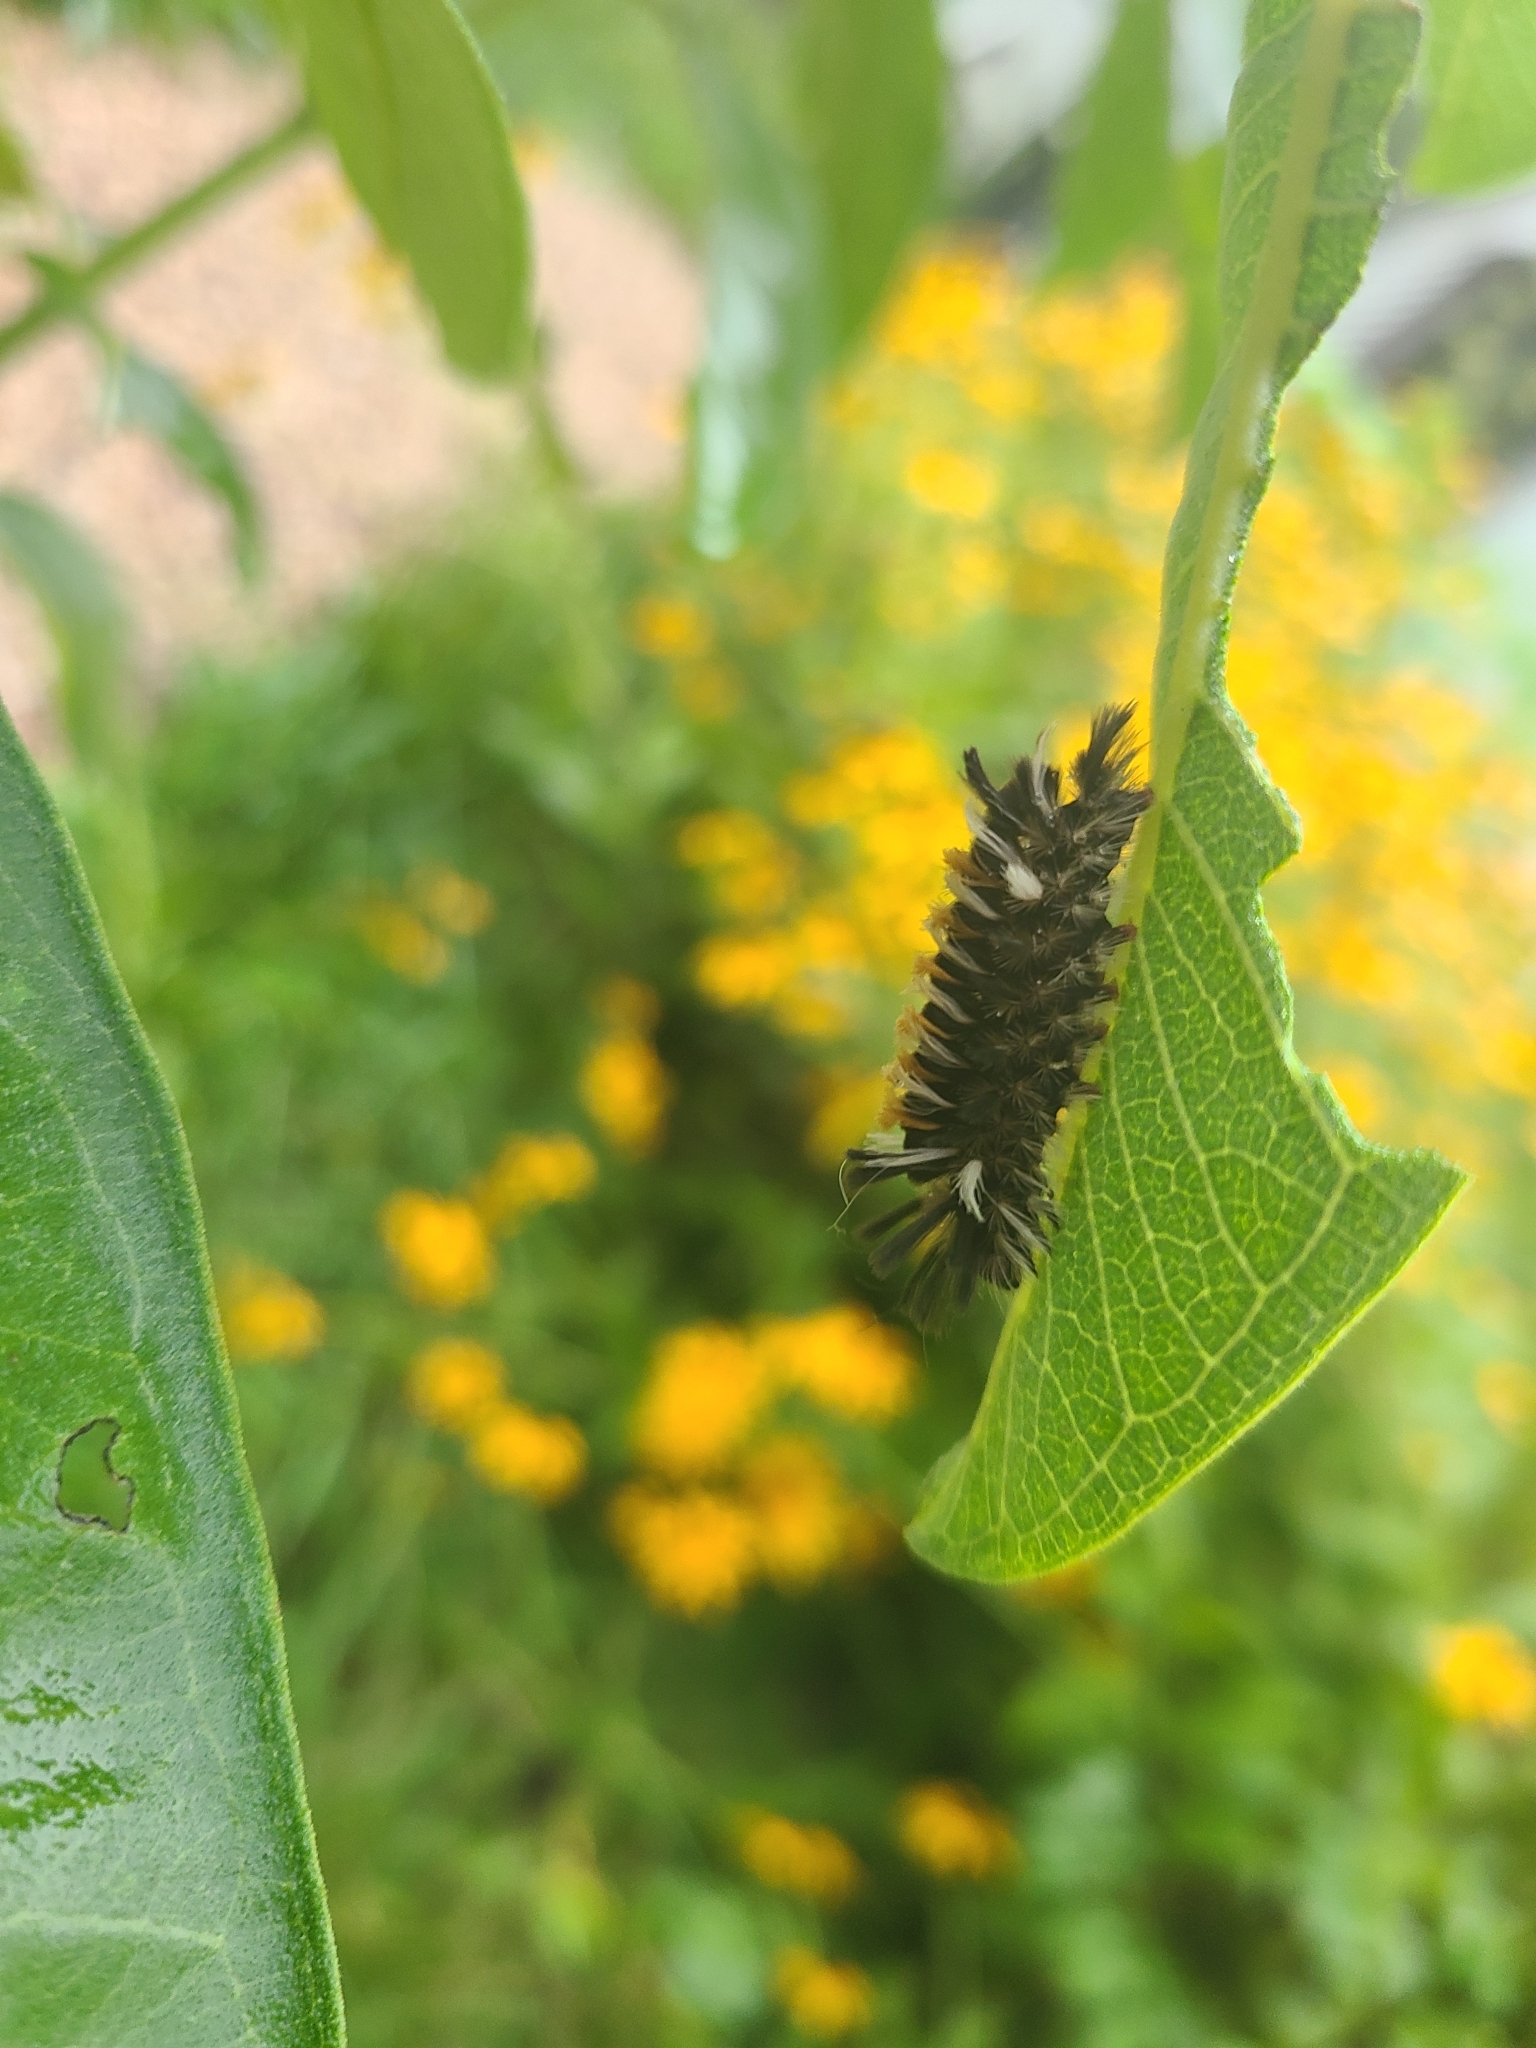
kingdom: Animalia
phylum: Arthropoda
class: Insecta
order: Lepidoptera
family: Erebidae
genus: Euchaetes
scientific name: Euchaetes egle
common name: Milkweed tussock moth
